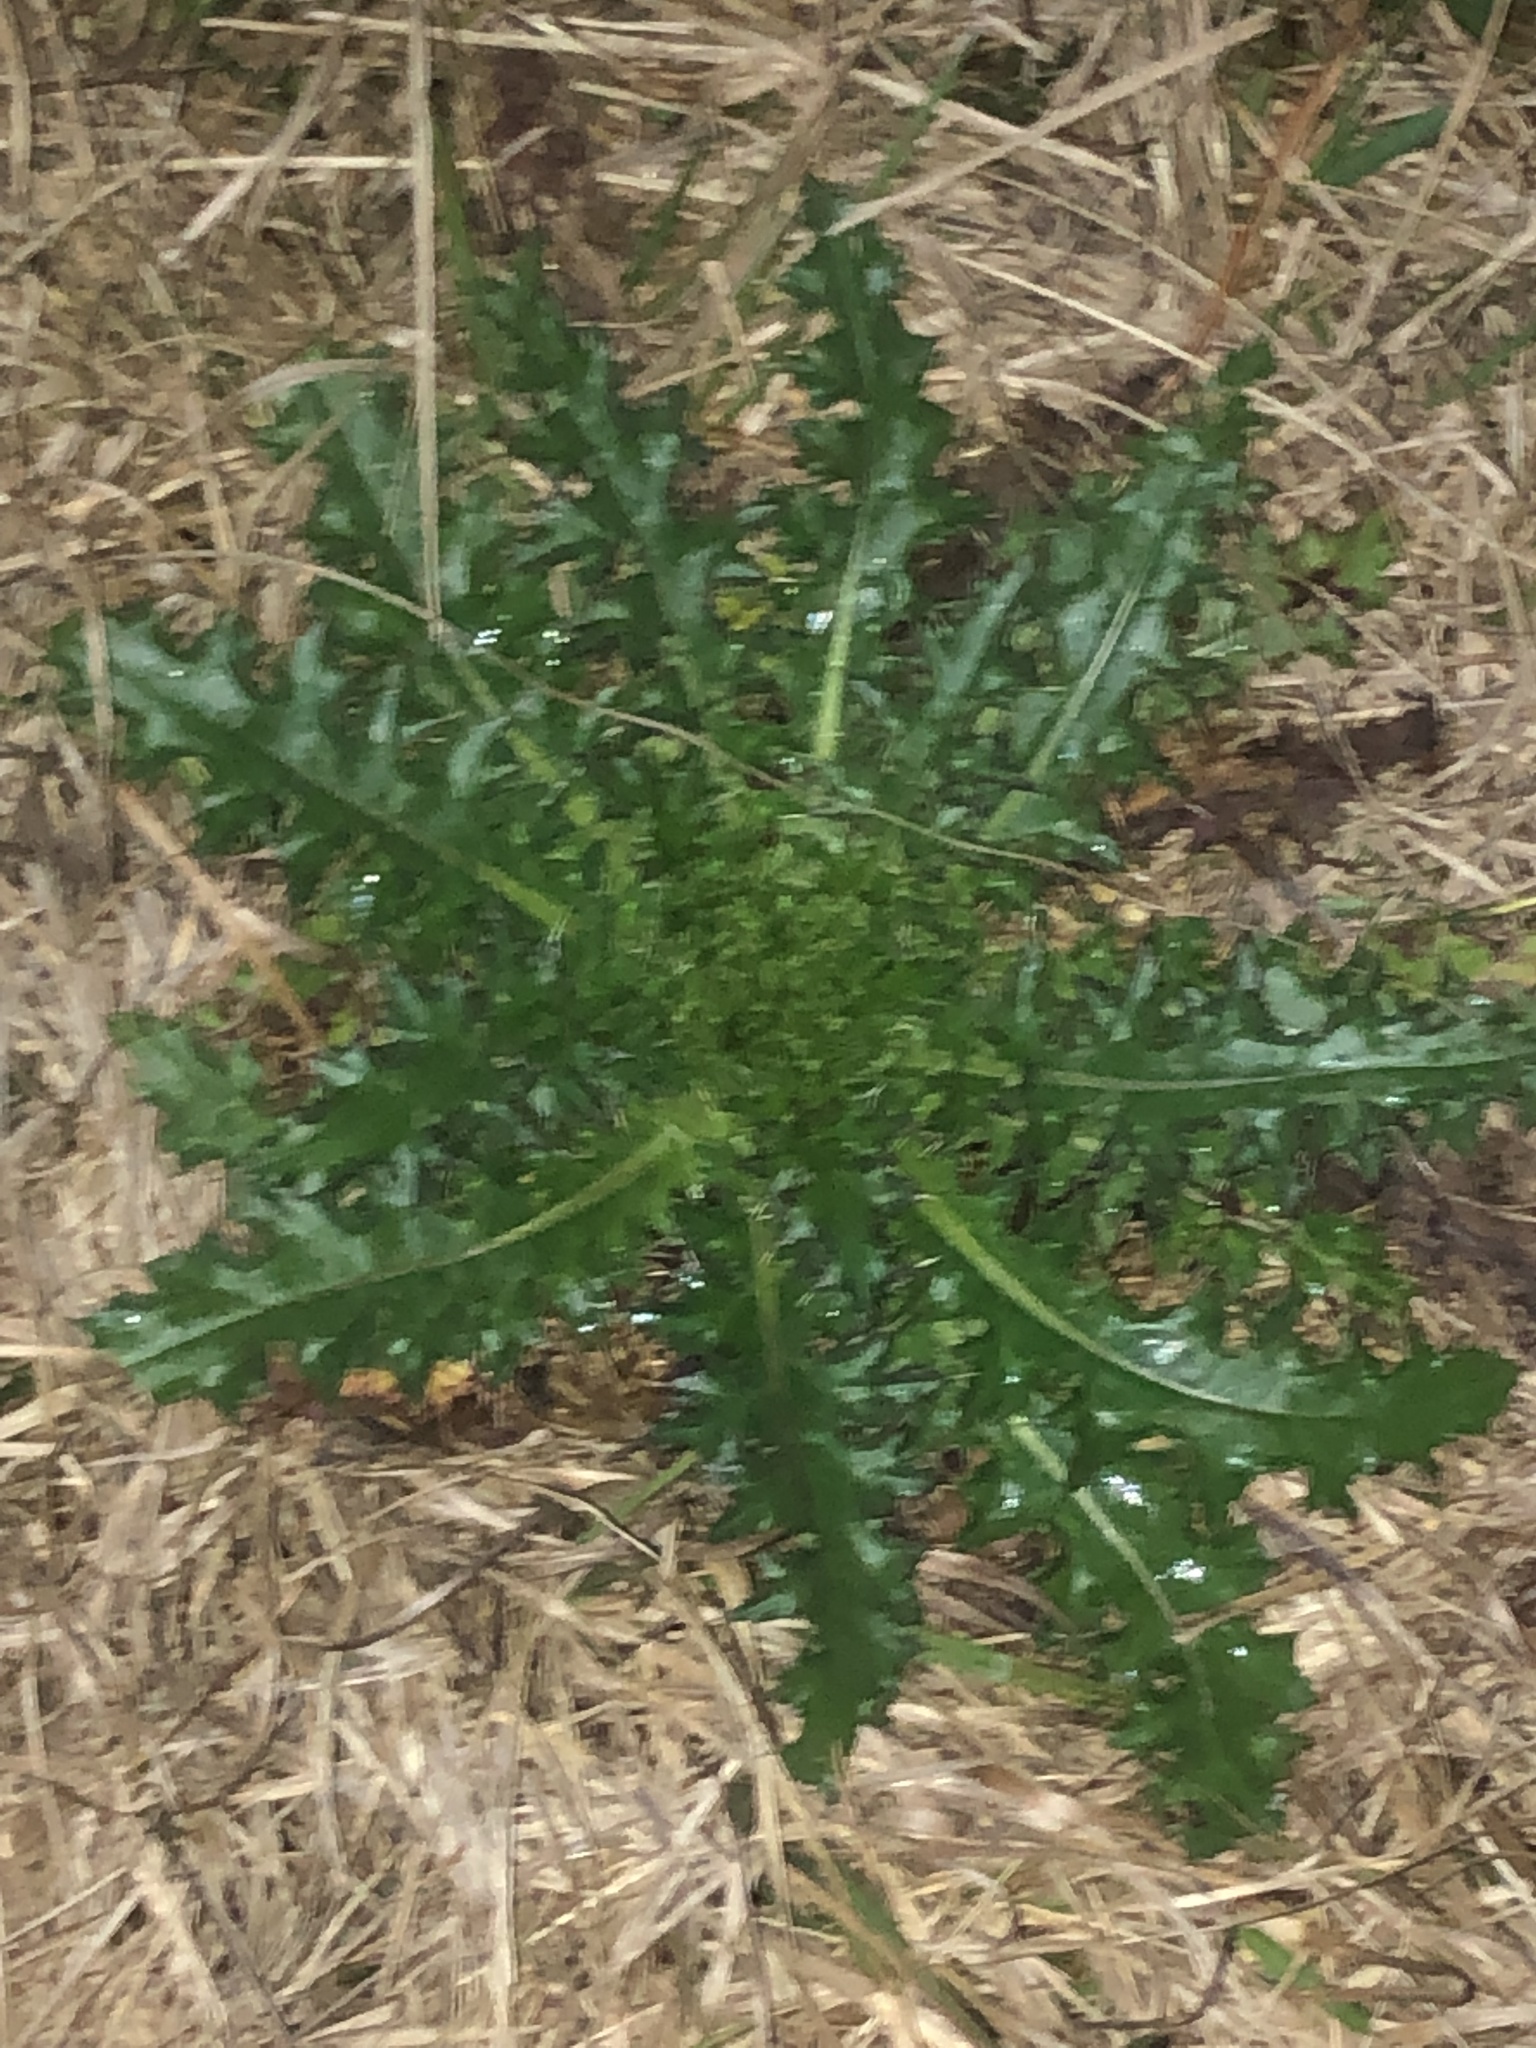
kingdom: Plantae
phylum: Tracheophyta
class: Magnoliopsida
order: Asterales
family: Asteraceae
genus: Cirsium
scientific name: Cirsium horridulum
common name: Bristly thistle
